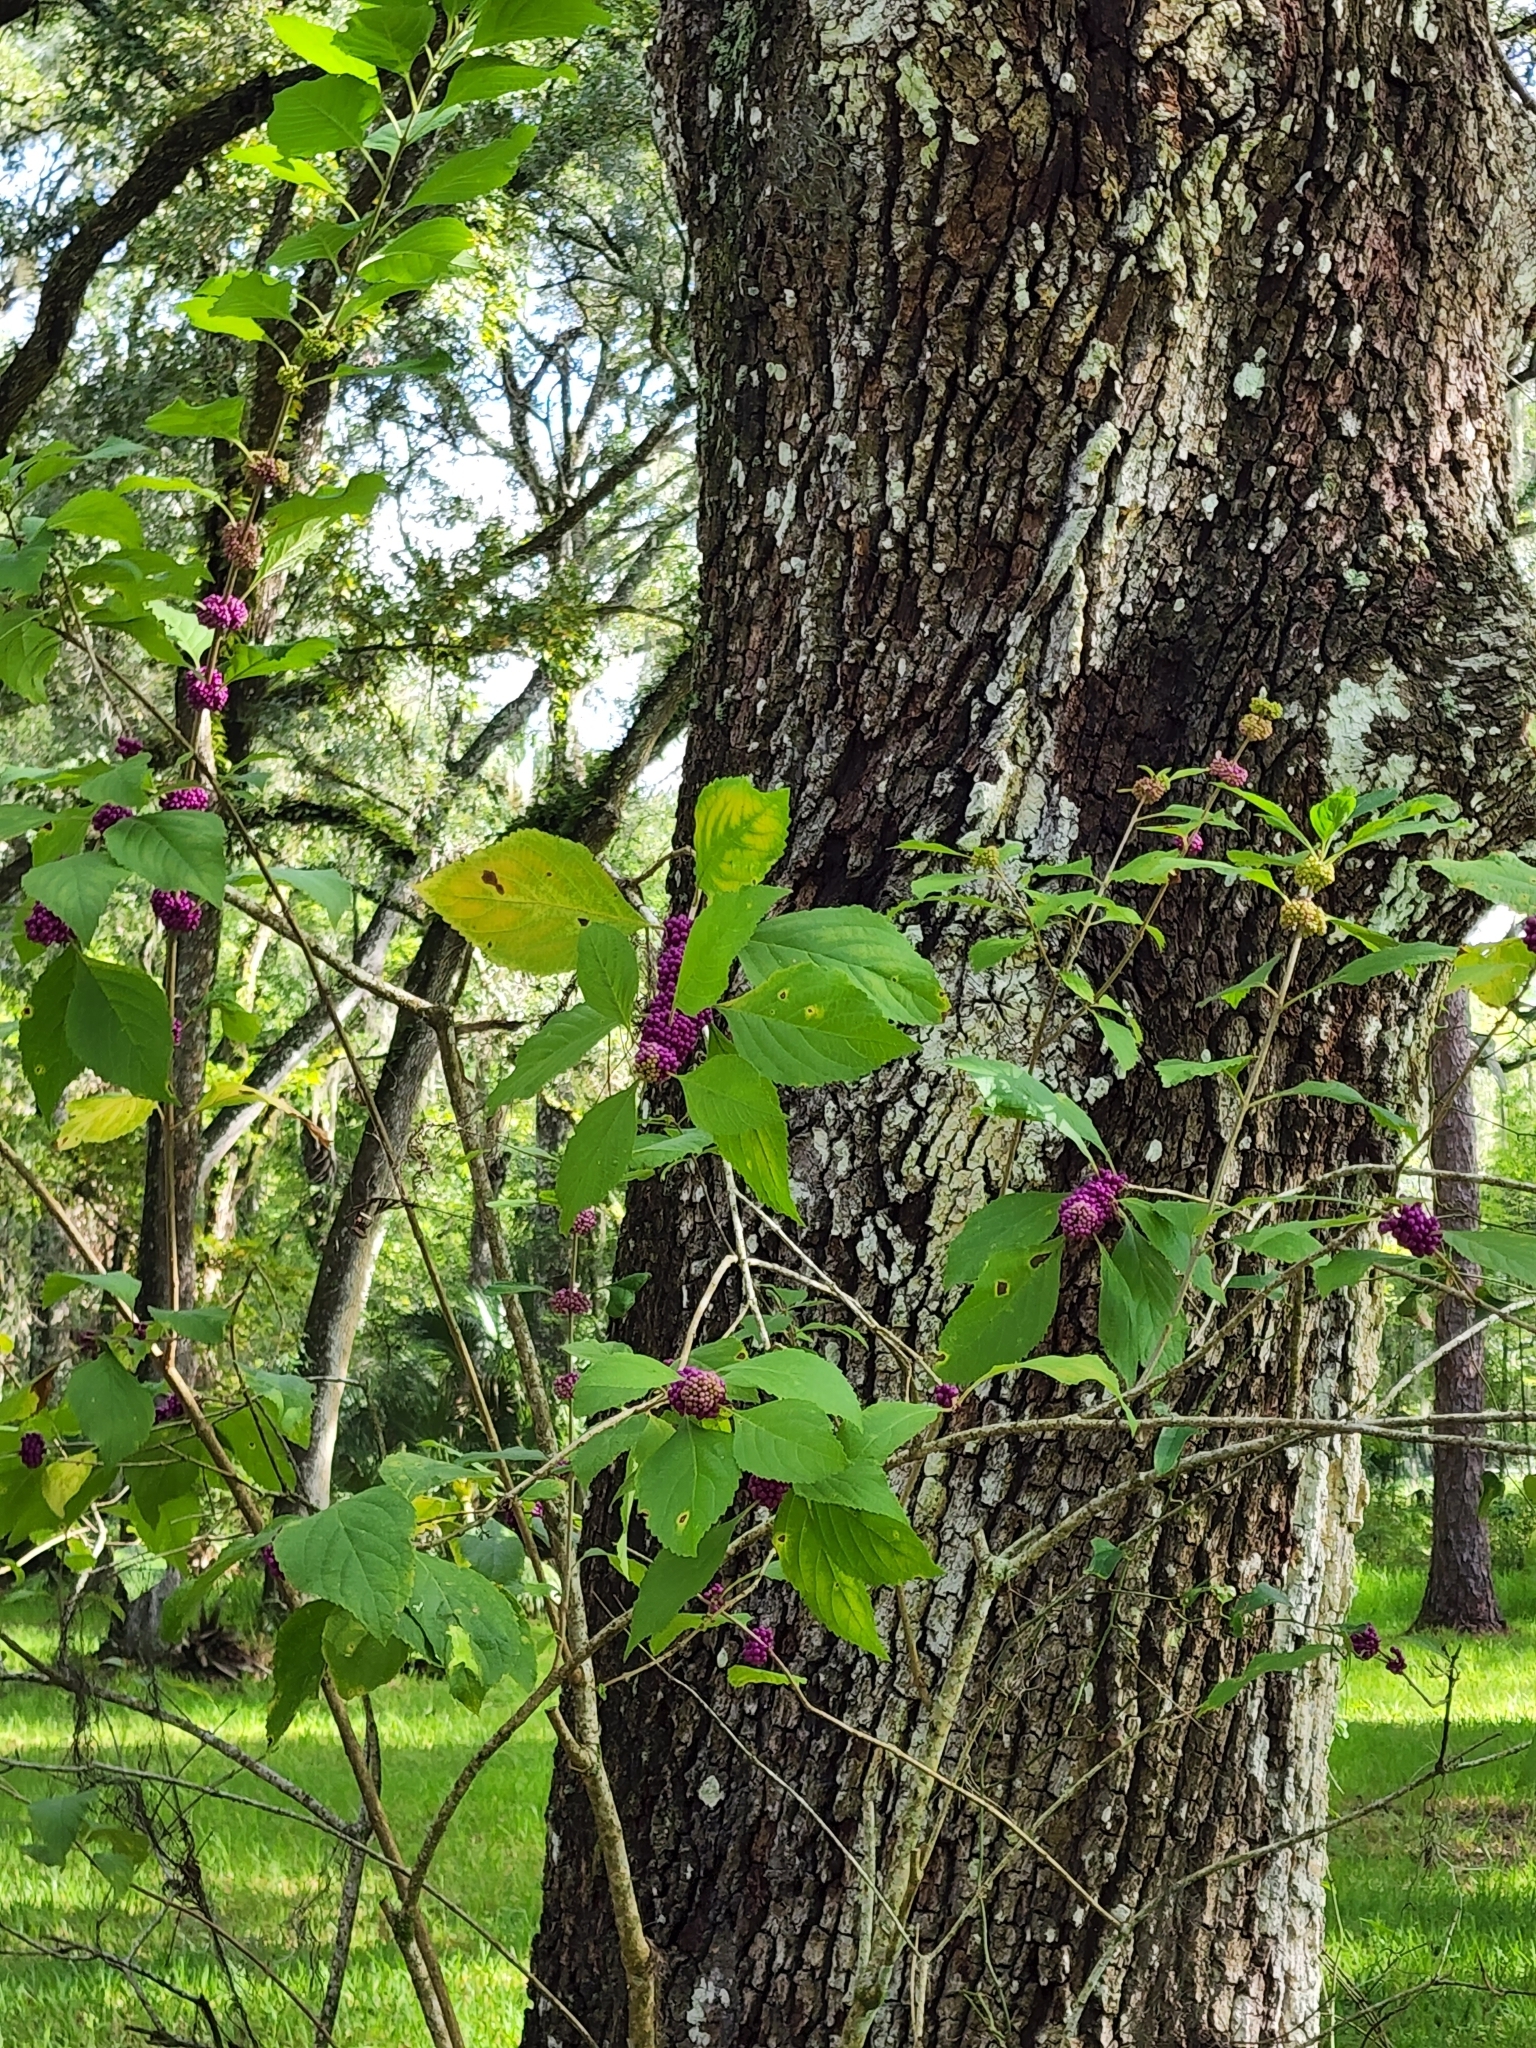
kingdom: Plantae
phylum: Tracheophyta
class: Magnoliopsida
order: Lamiales
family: Lamiaceae
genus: Callicarpa
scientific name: Callicarpa americana
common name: American beautyberry
